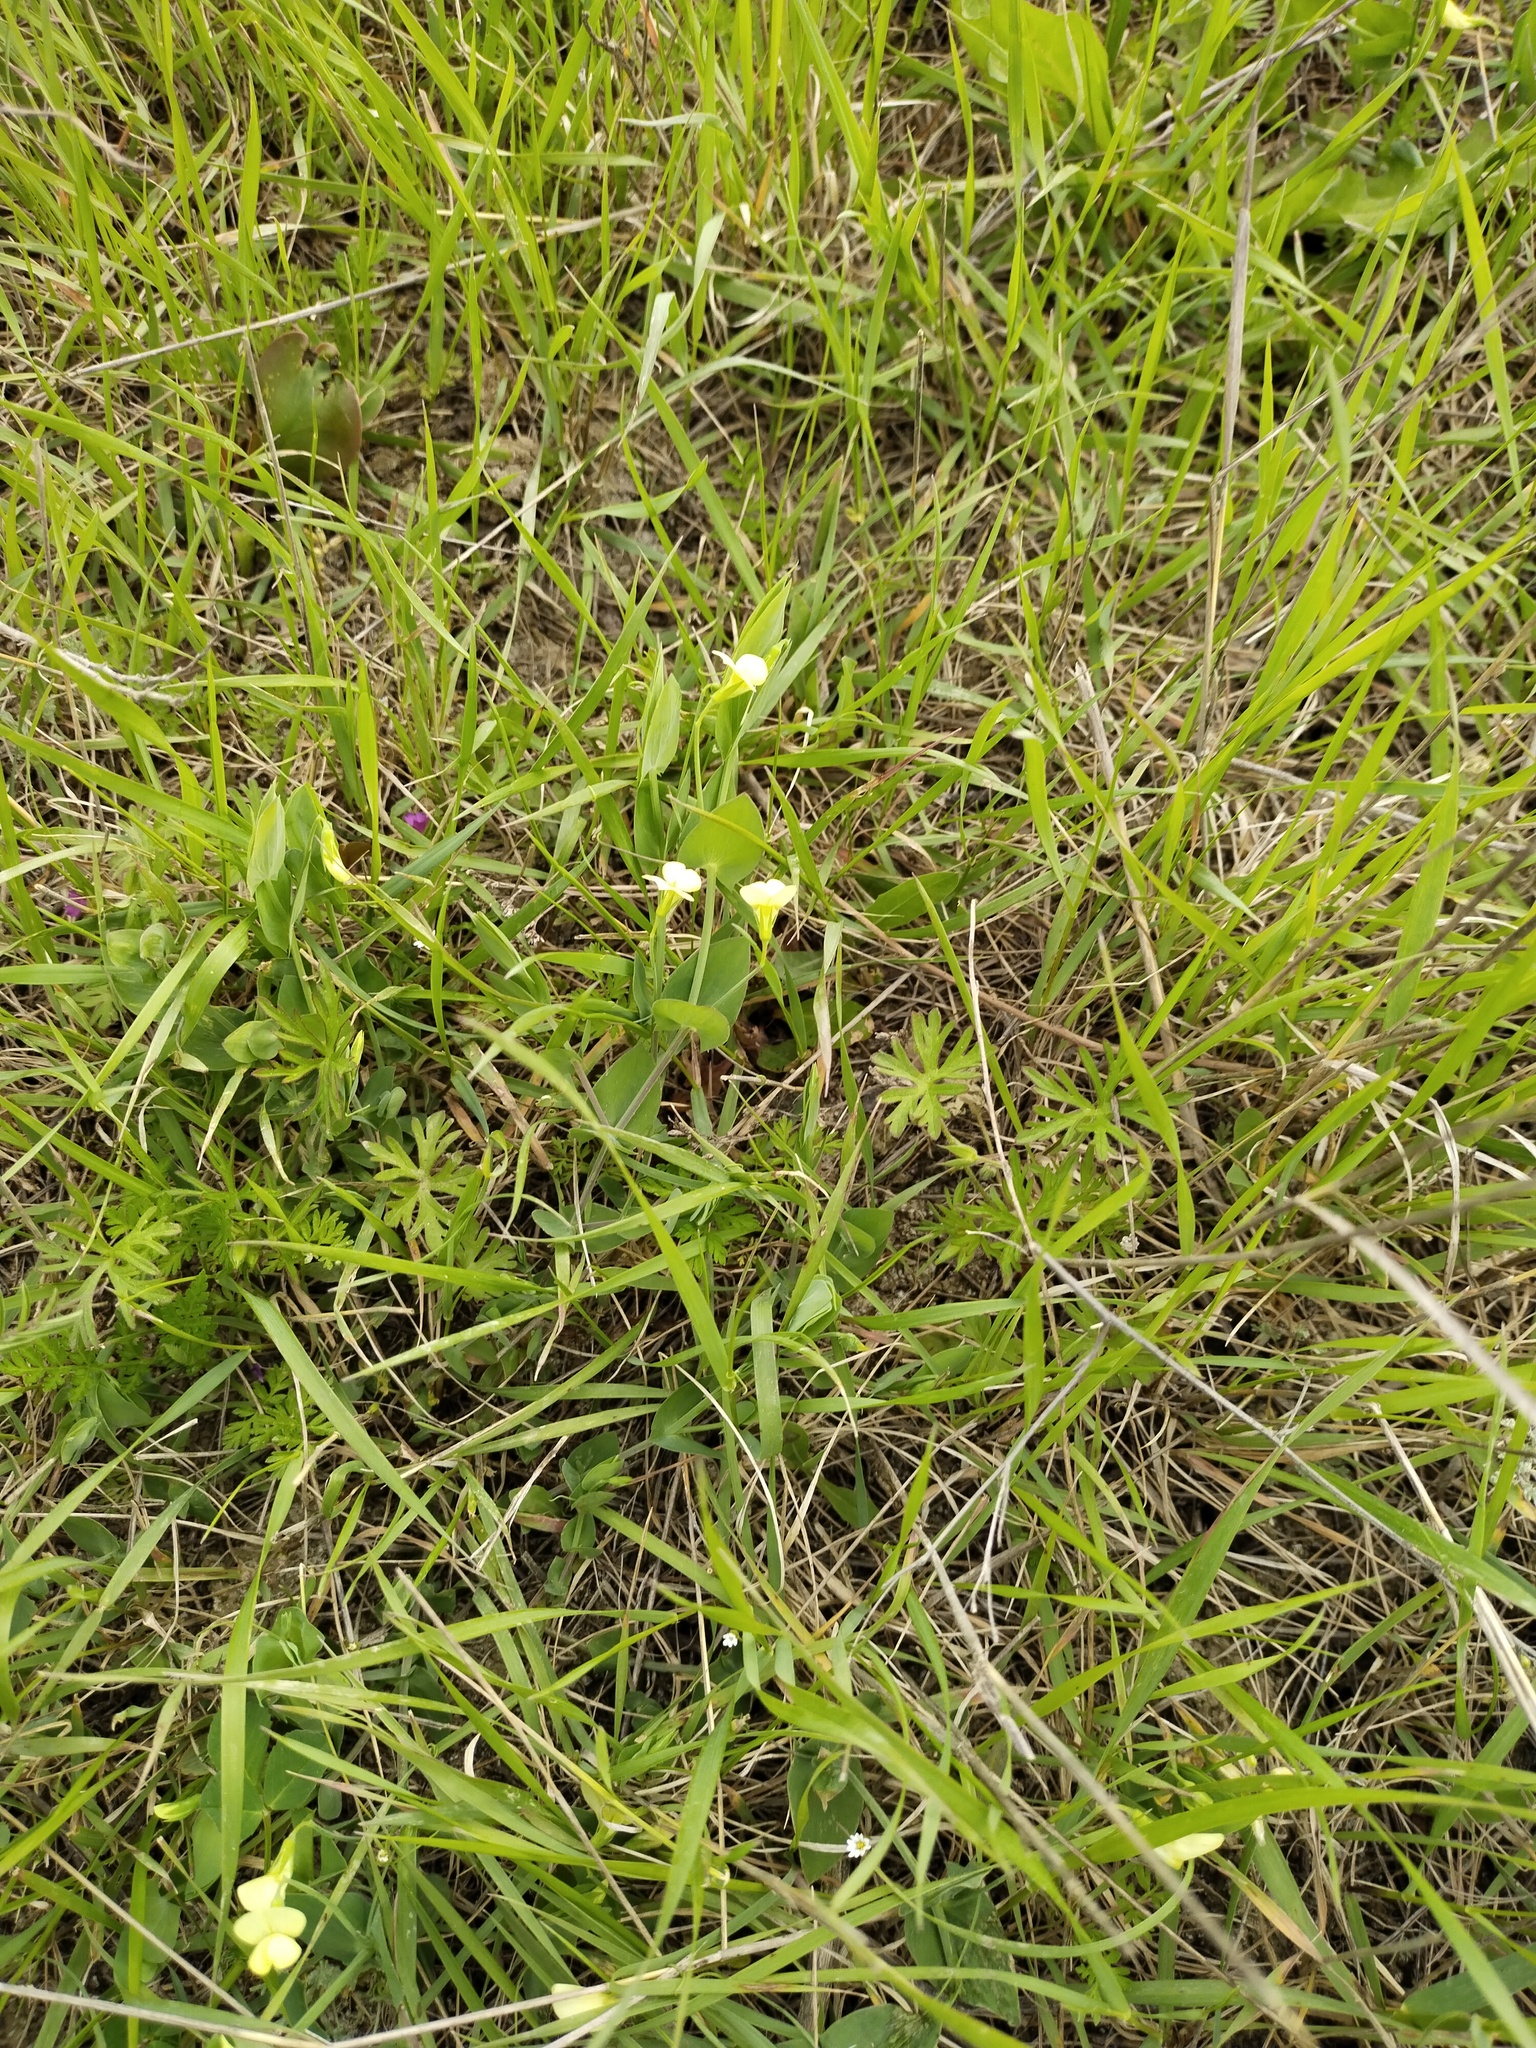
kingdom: Plantae
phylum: Tracheophyta
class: Magnoliopsida
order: Fabales
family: Fabaceae
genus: Lathyrus
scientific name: Lathyrus aphaca
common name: Yellow vetchling
